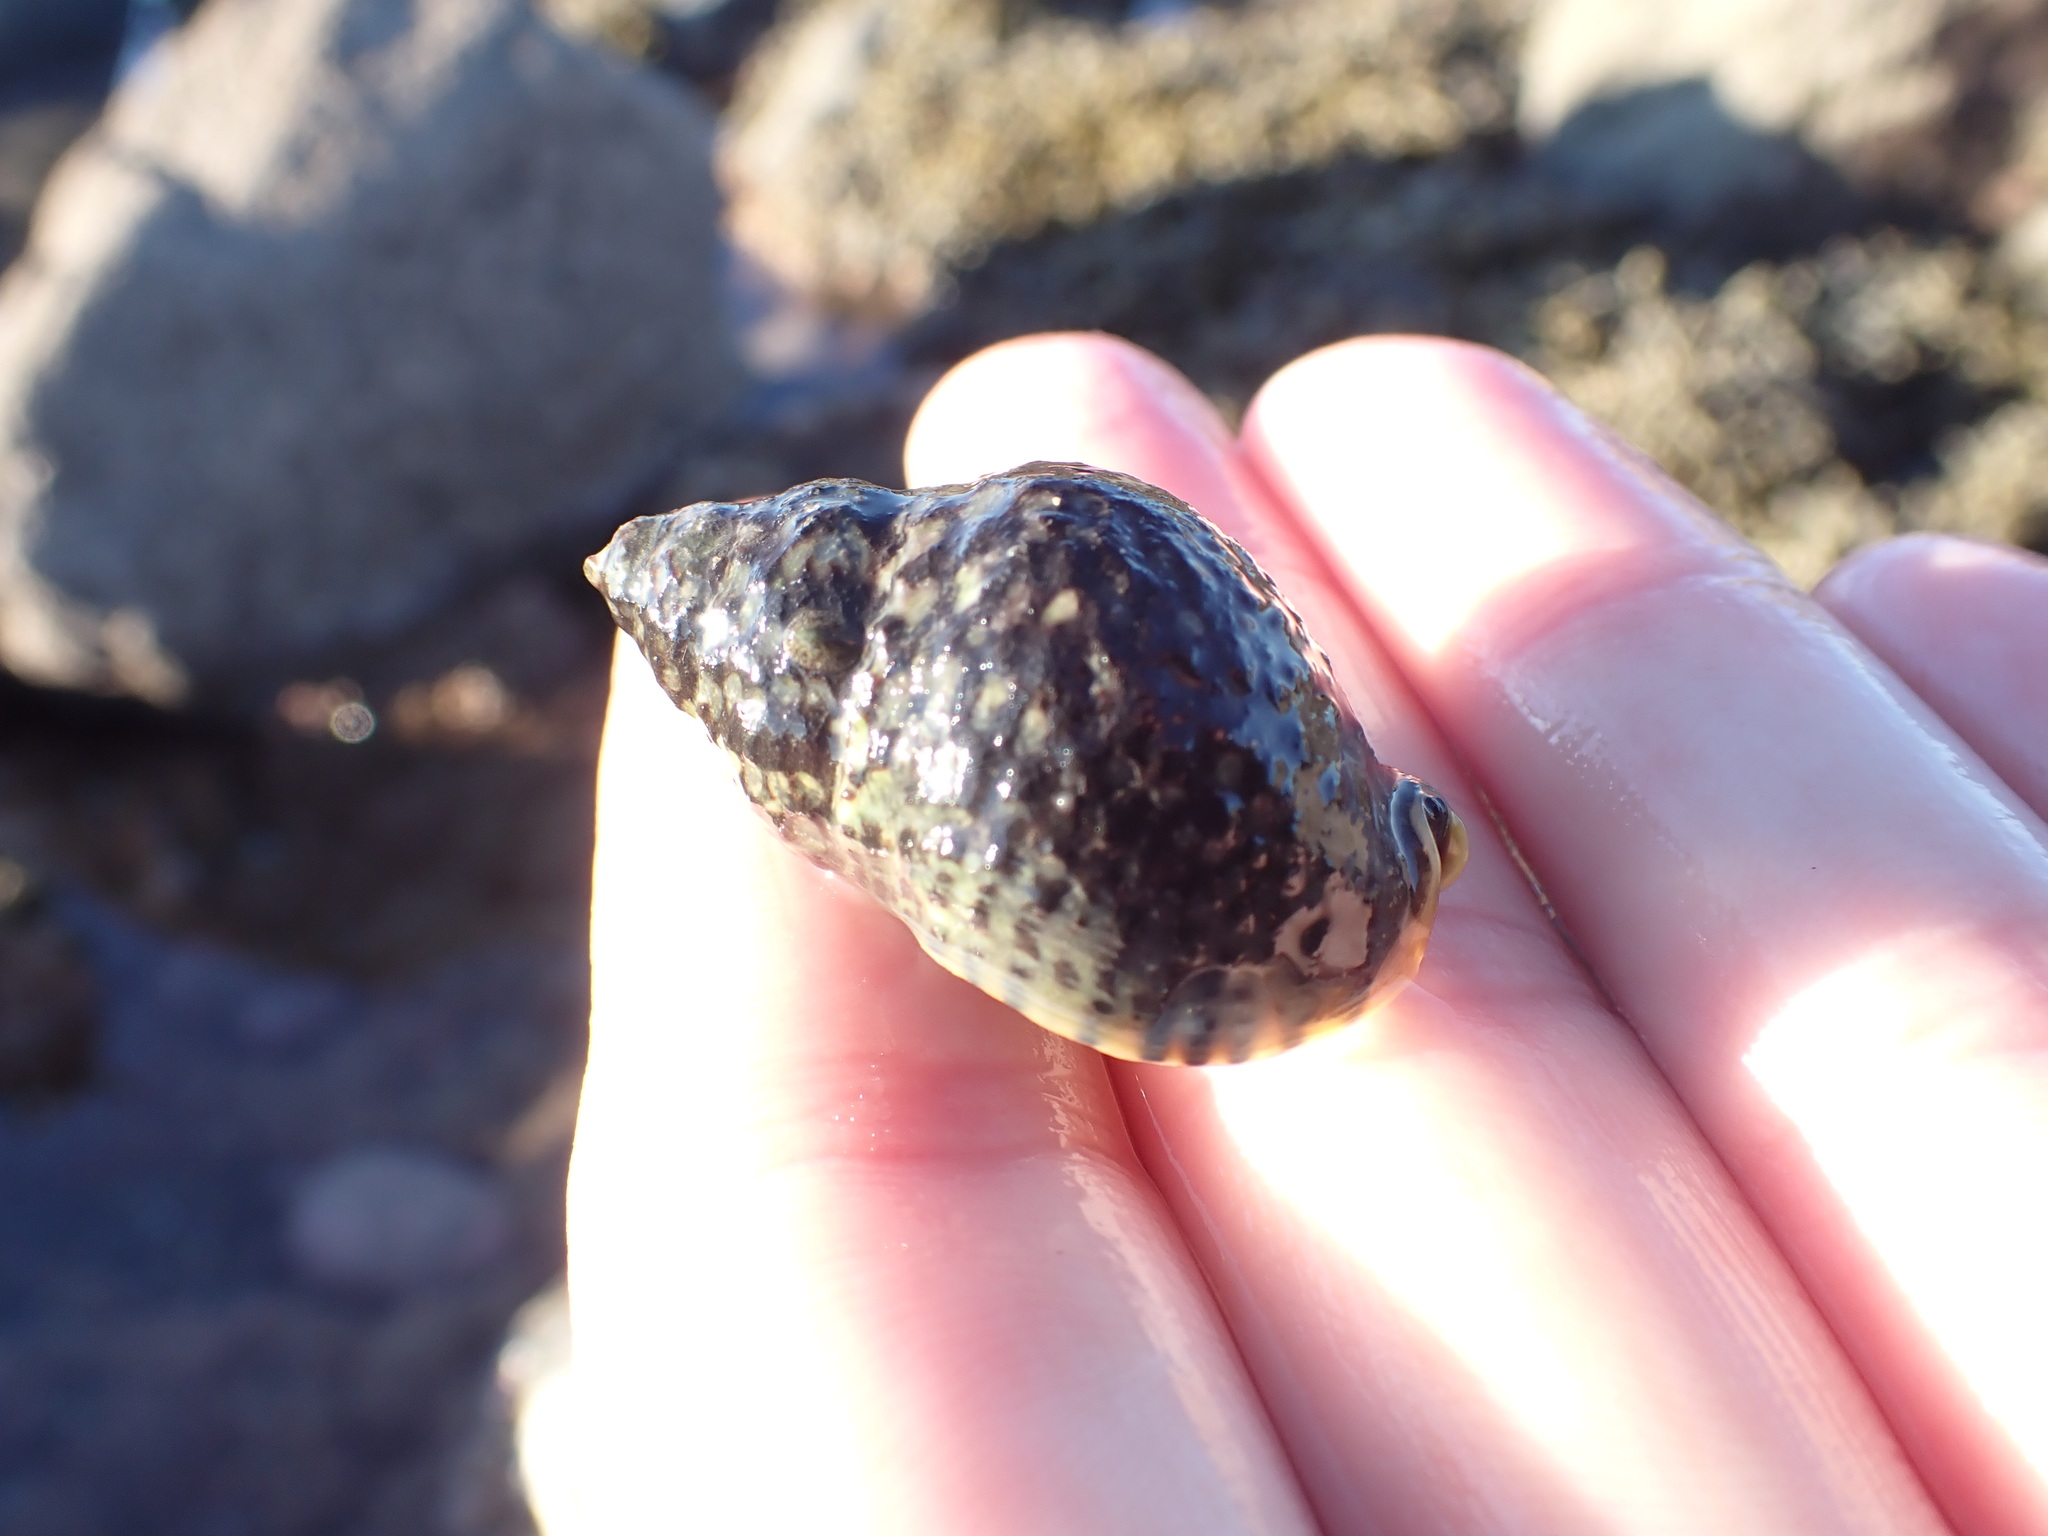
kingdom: Animalia
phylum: Mollusca
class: Gastropoda
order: Neogastropoda
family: Cominellidae
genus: Cominella
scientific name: Cominella maculosa
